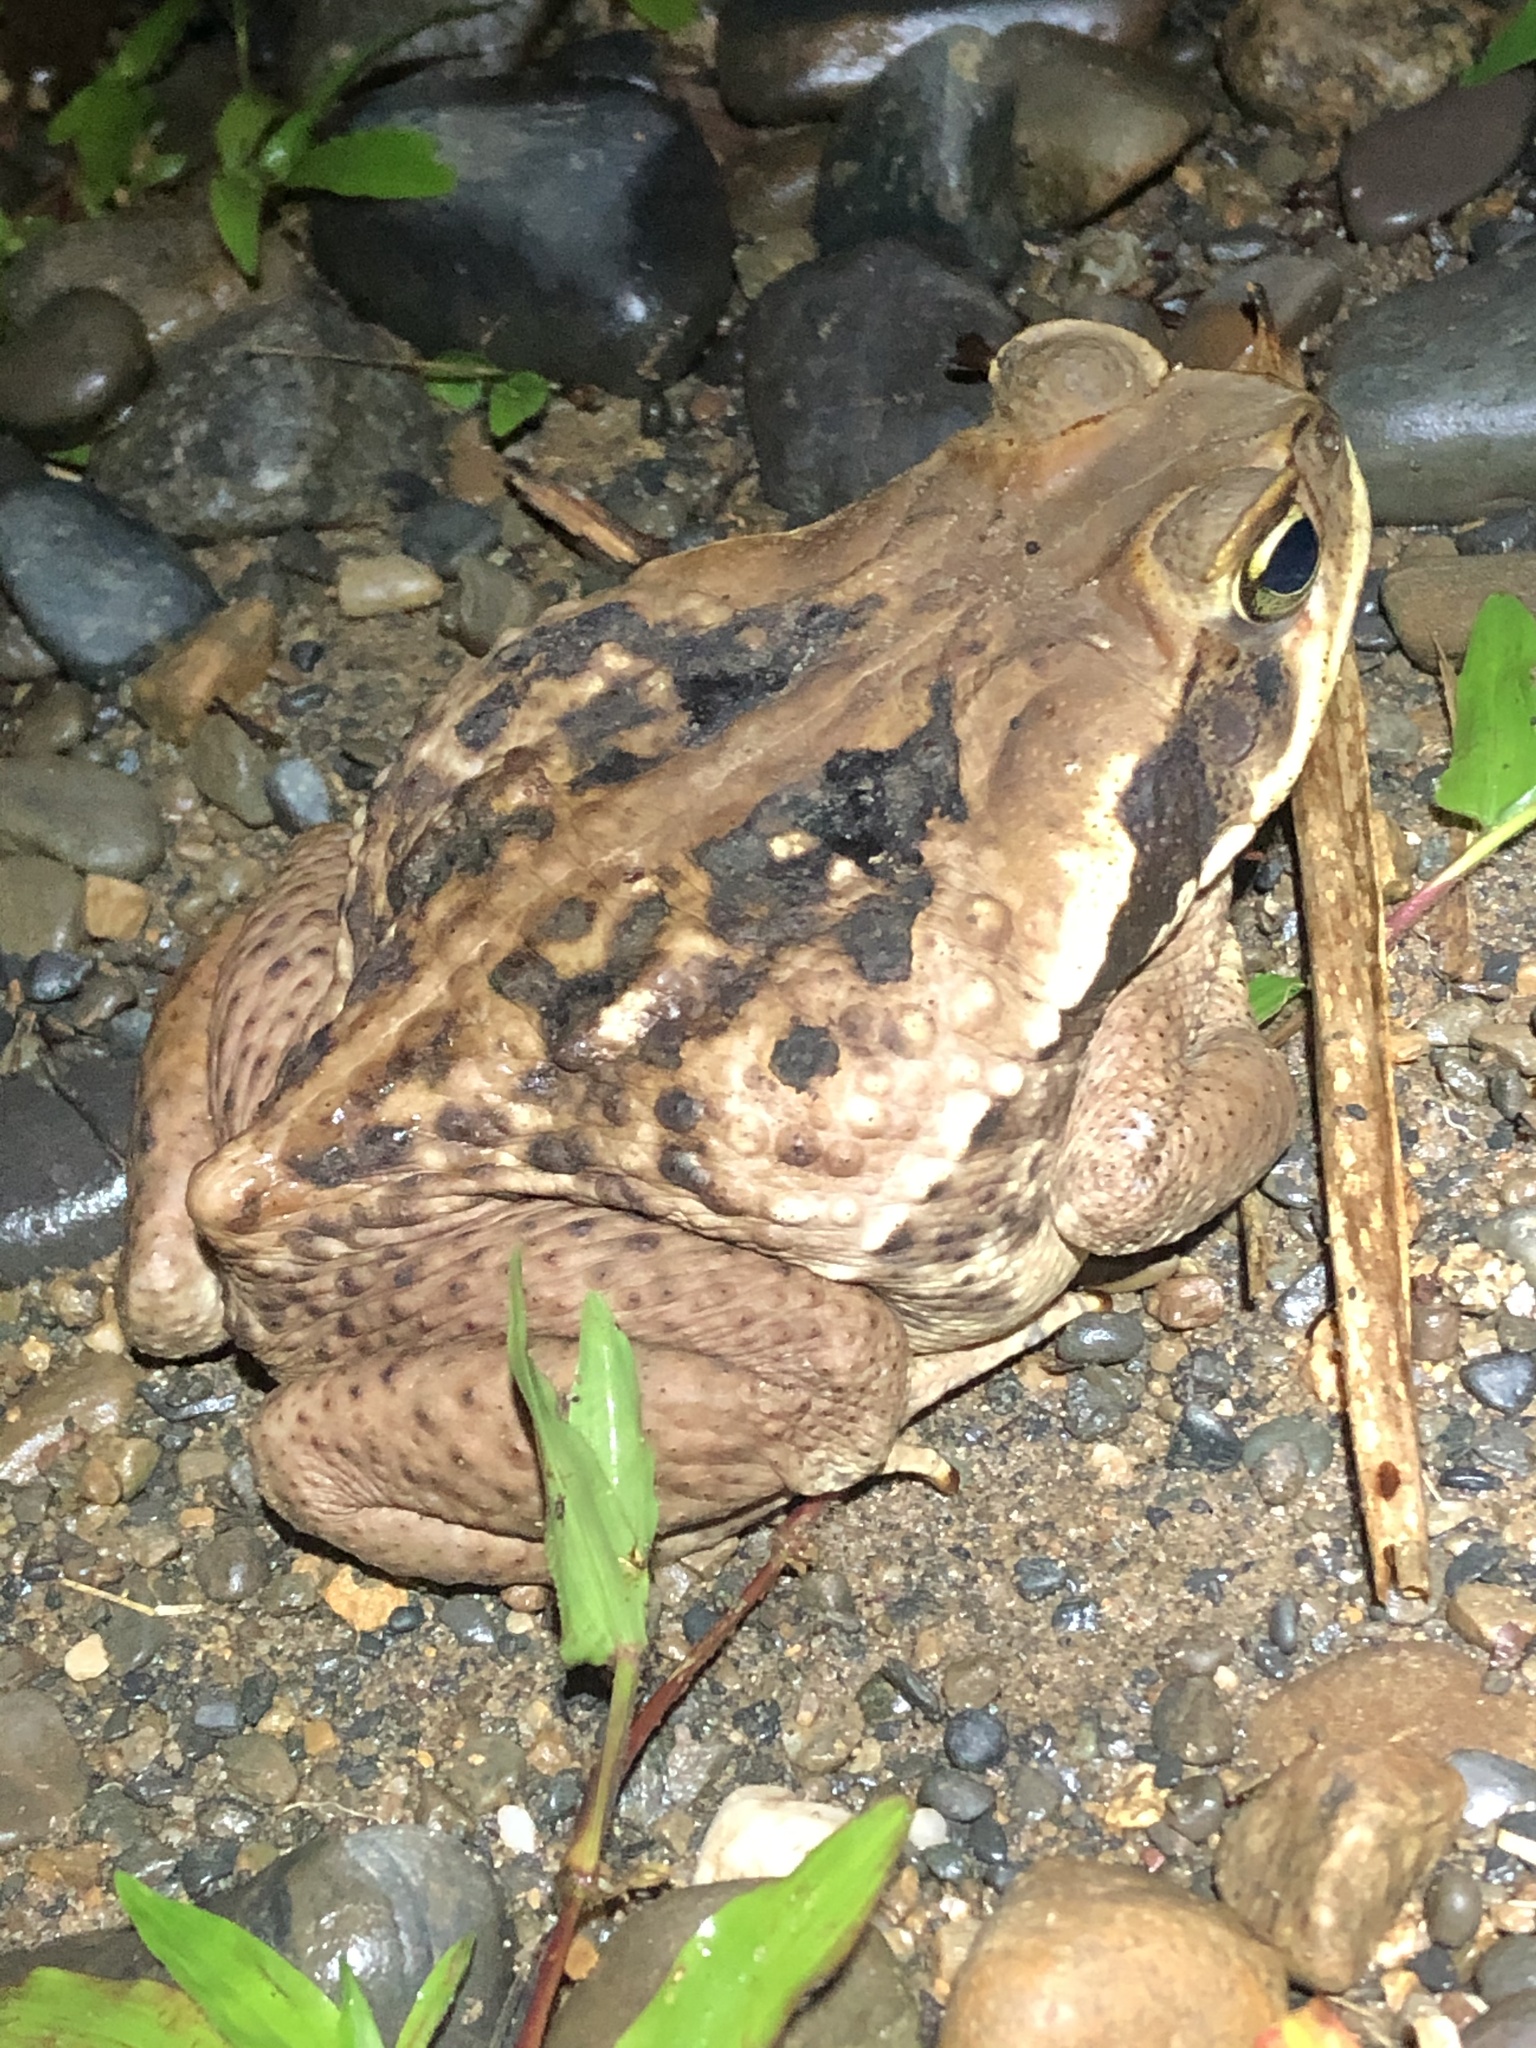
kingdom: Animalia
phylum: Chordata
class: Amphibia
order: Anura
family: Bufonidae
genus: Rhinella
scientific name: Rhinella marina
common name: Cane toad
